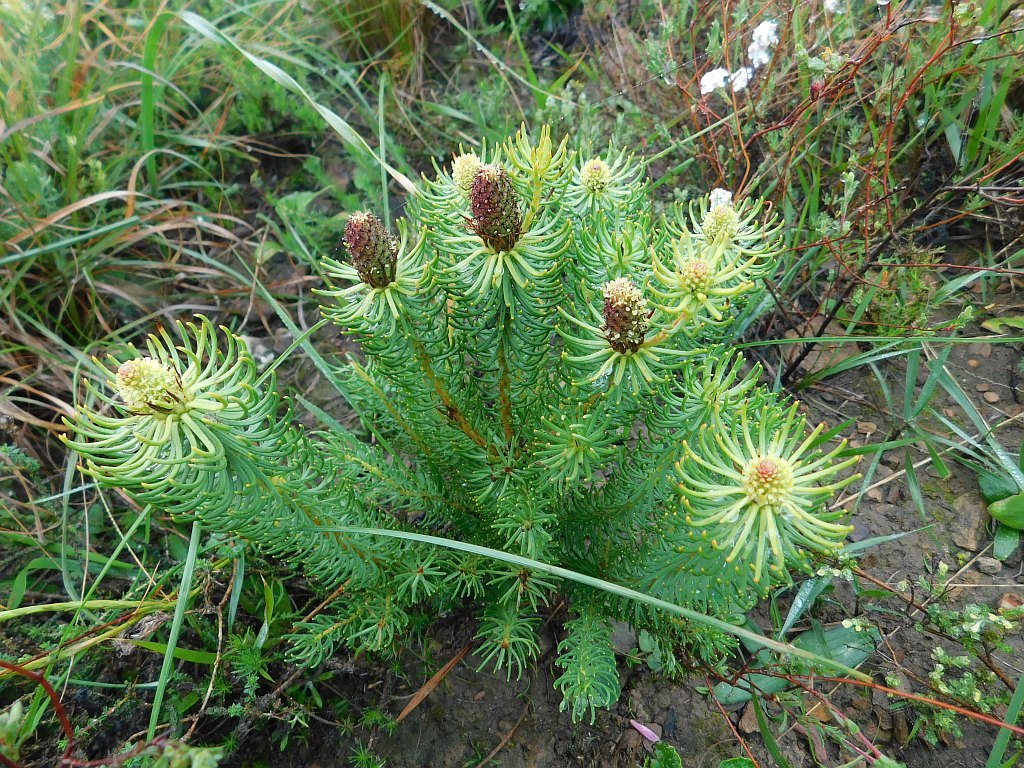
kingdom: Plantae
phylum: Tracheophyta
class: Magnoliopsida
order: Proteales
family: Proteaceae
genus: Leucadendron
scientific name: Leucadendron teretifolium
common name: Needle-leaf conebush
